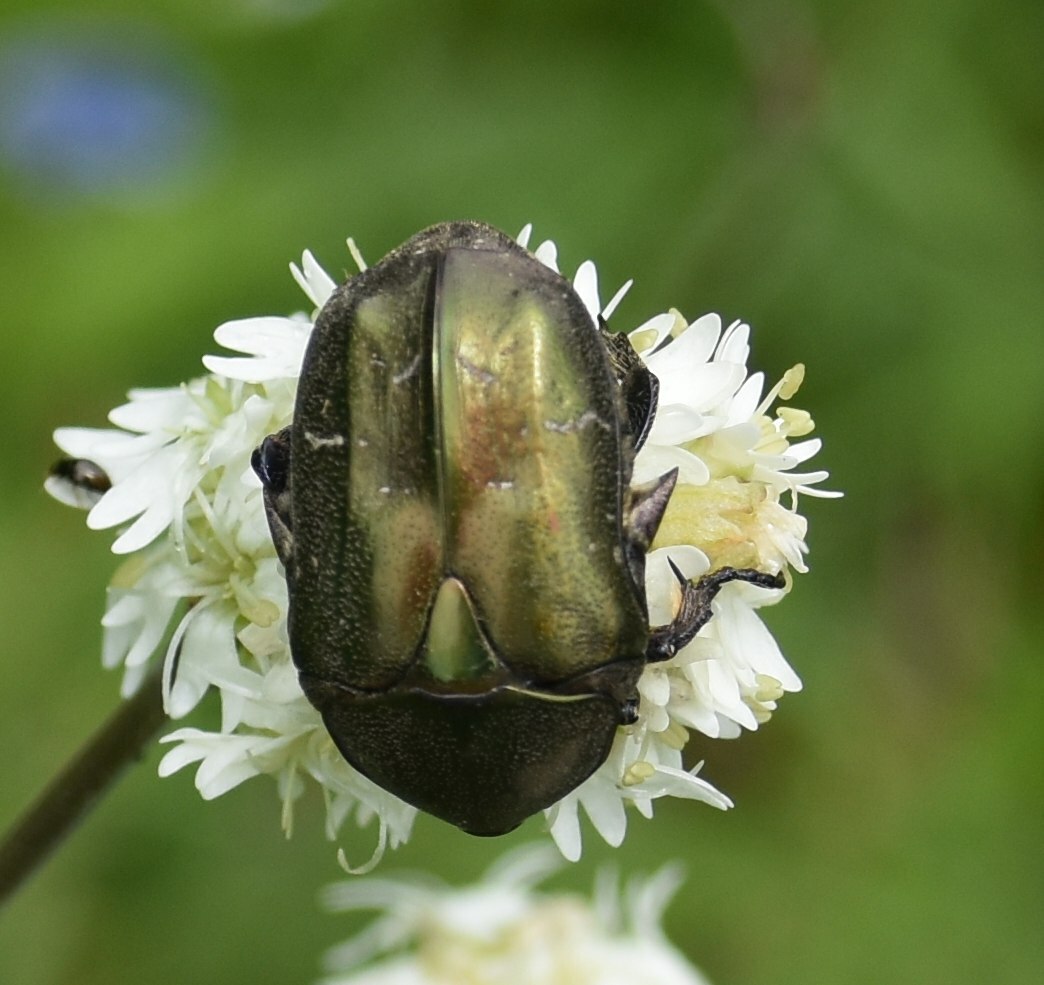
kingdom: Animalia
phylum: Arthropoda
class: Insecta
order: Coleoptera
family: Scarabaeidae
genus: Protaetia
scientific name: Protaetia cuprea
